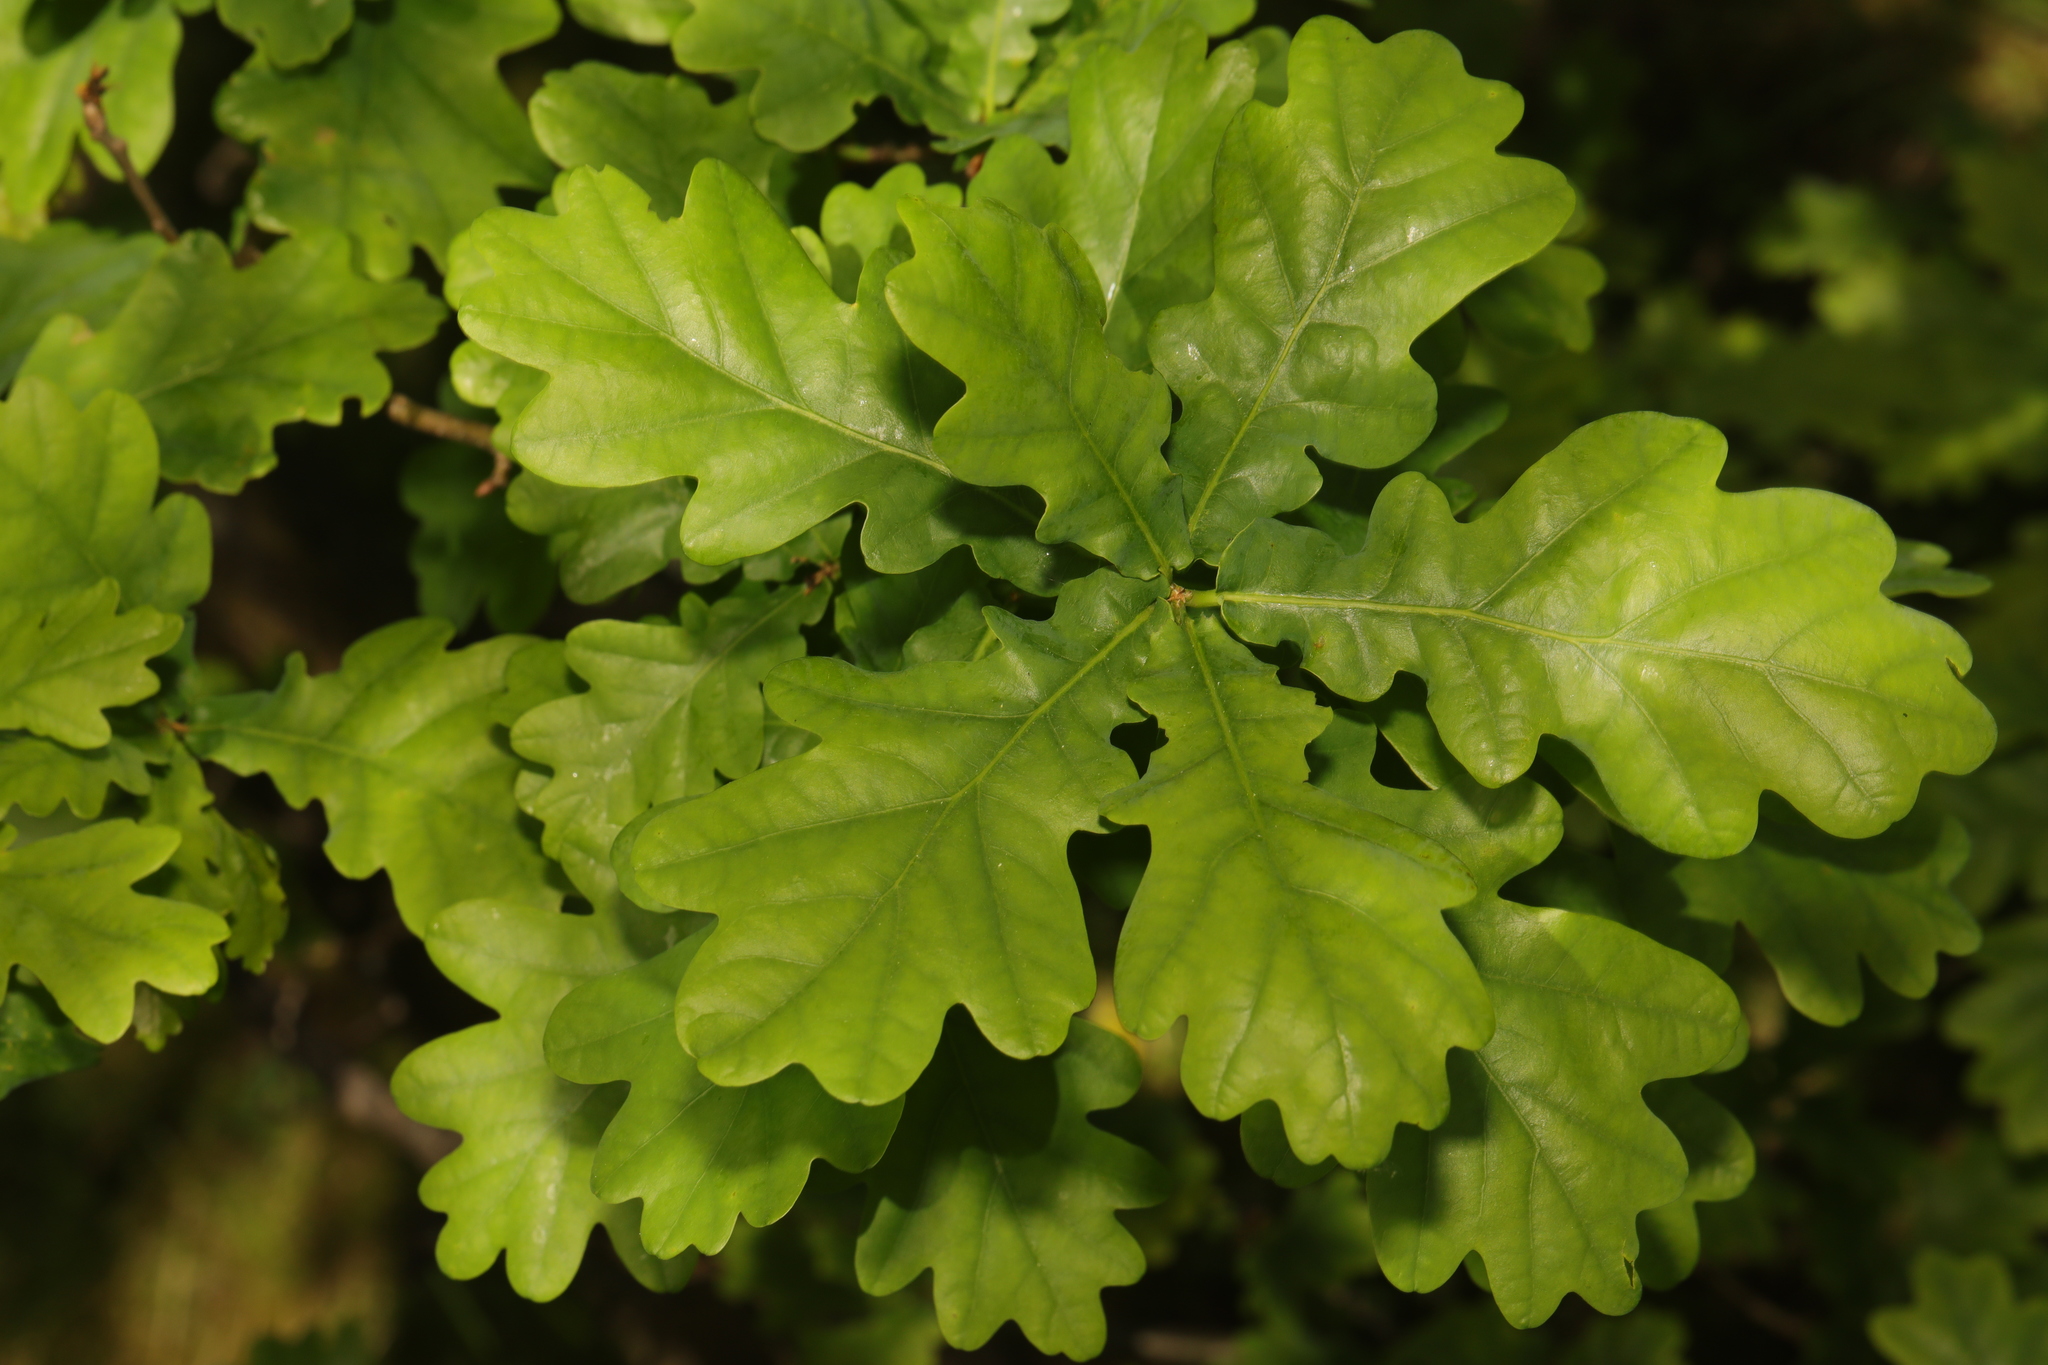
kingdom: Plantae
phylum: Tracheophyta
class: Magnoliopsida
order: Fagales
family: Fagaceae
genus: Quercus
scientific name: Quercus robur
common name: Pedunculate oak
